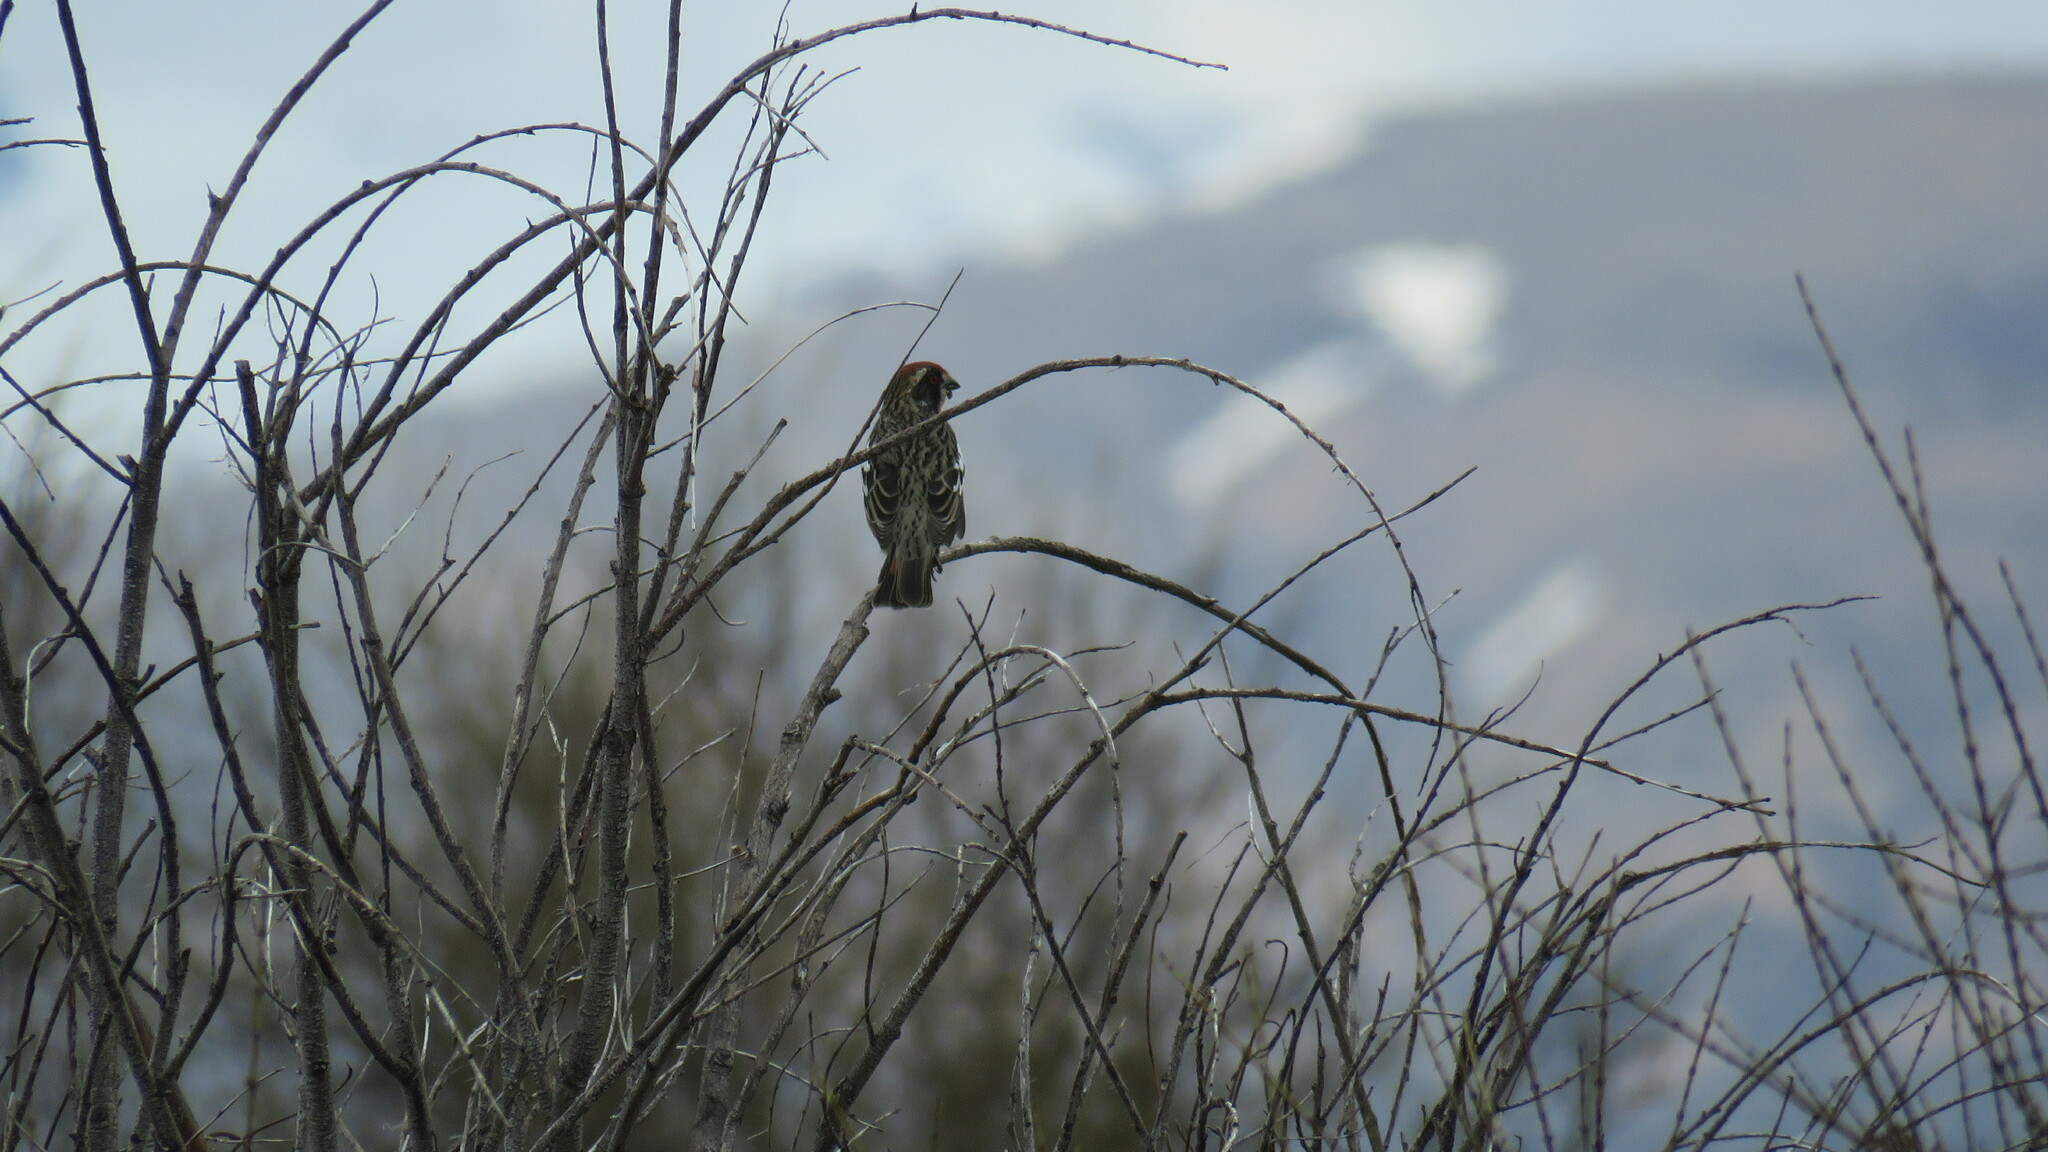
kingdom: Animalia
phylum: Chordata
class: Aves
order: Passeriformes
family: Cotingidae
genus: Phytotoma
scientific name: Phytotoma rara
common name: Rufous-tailed plantcutter
